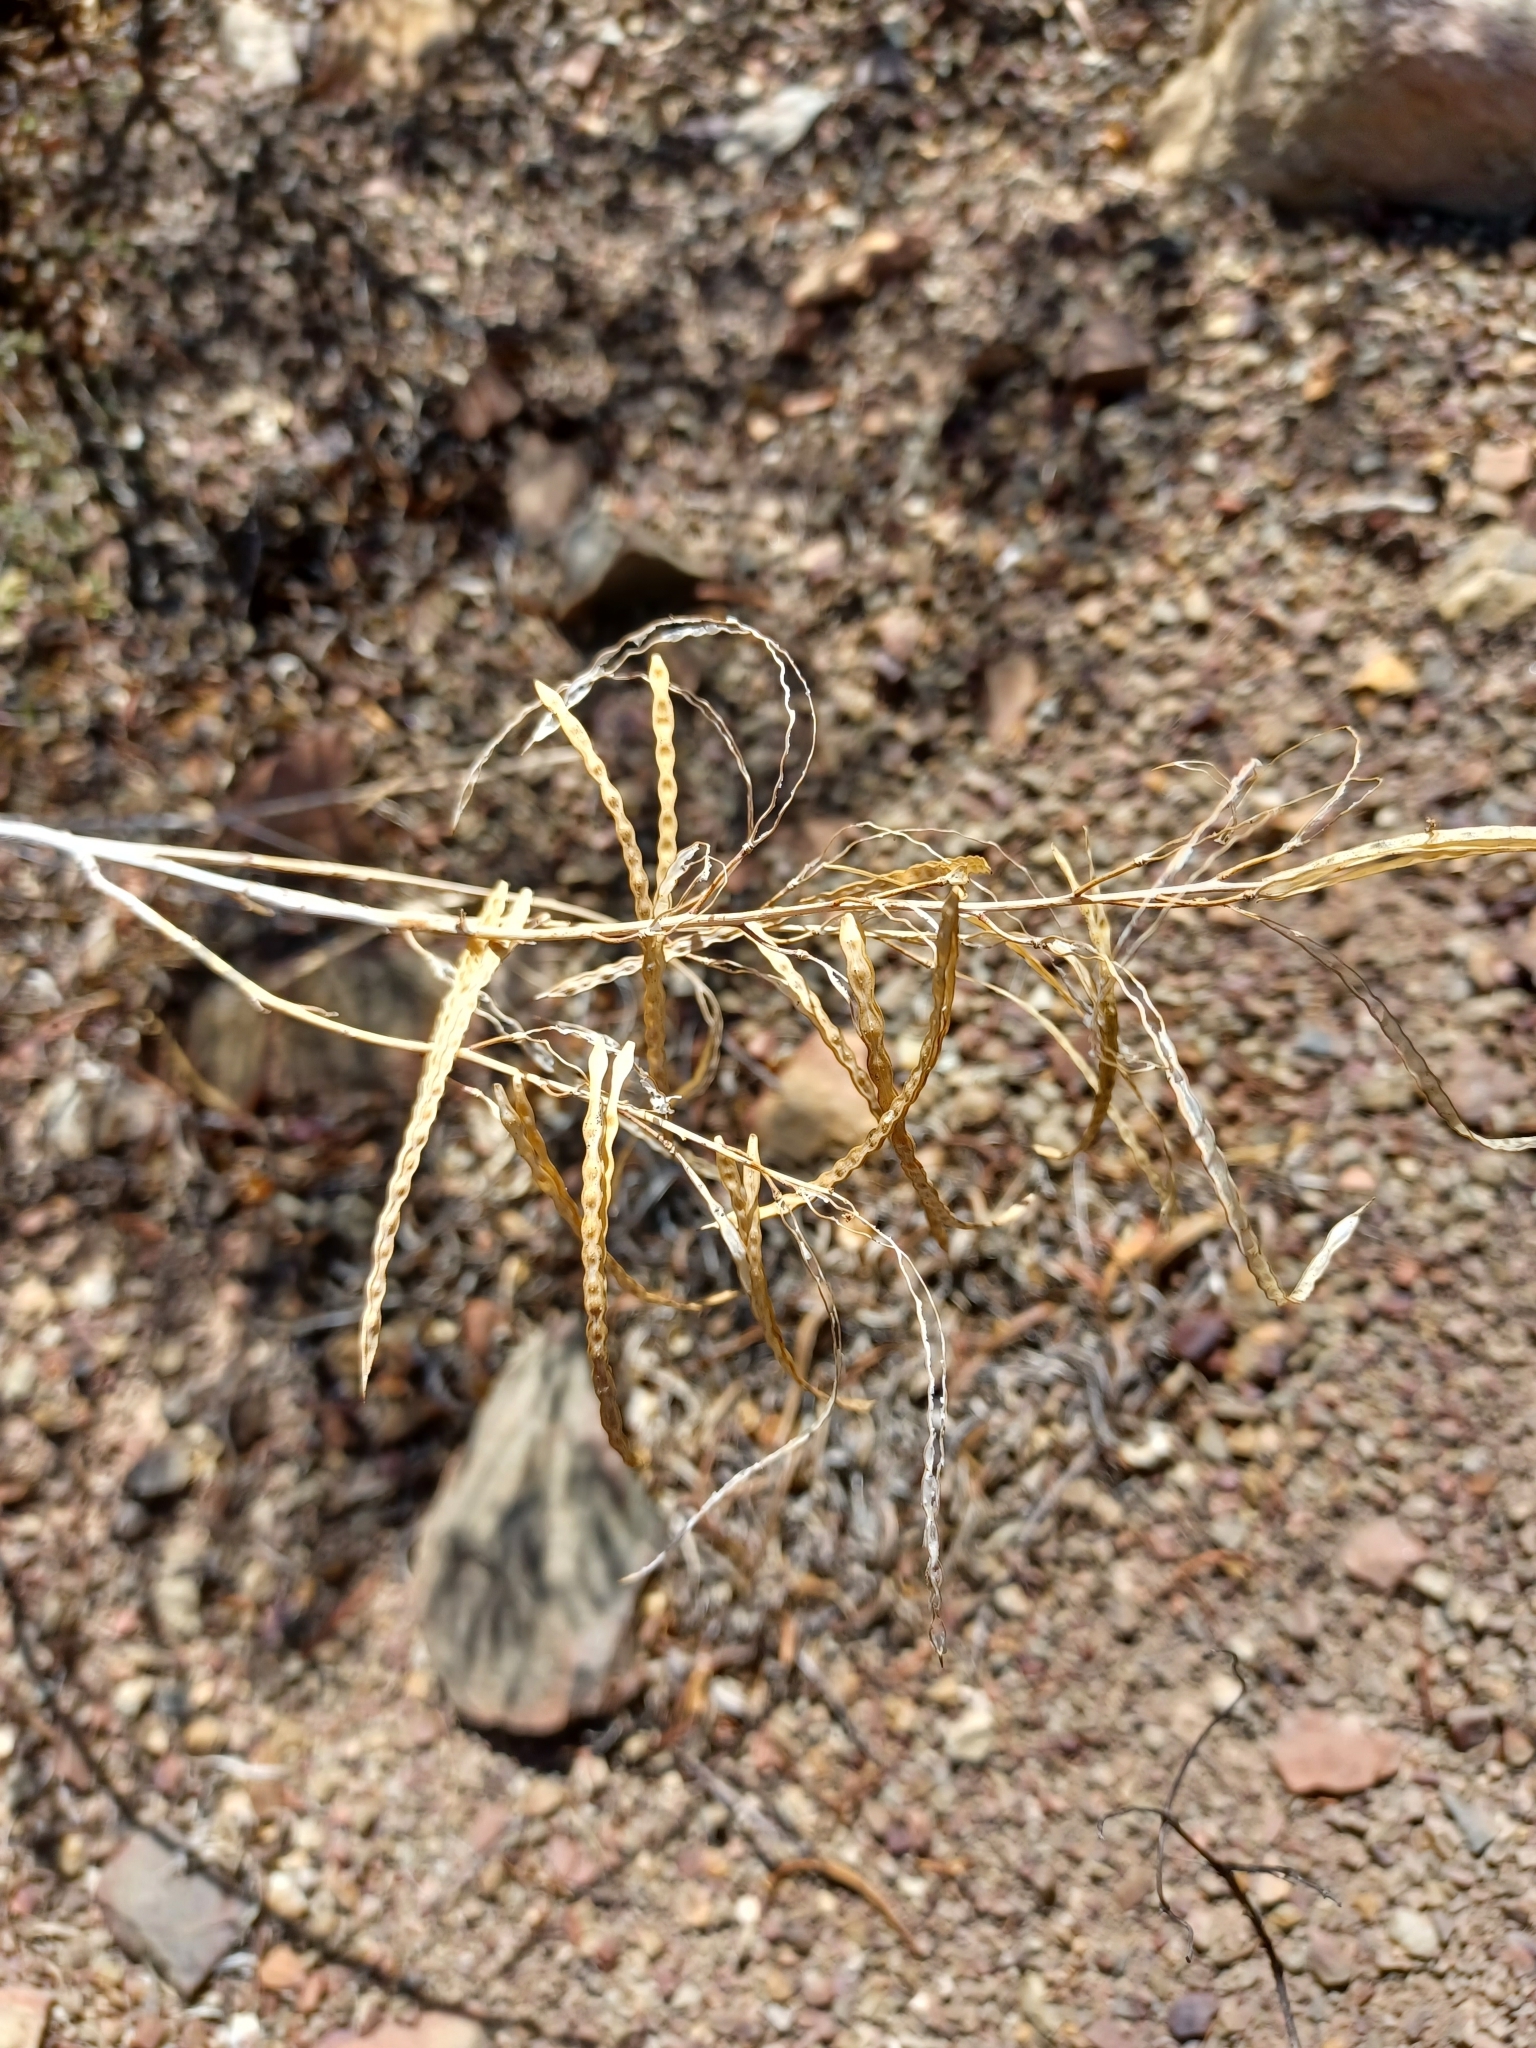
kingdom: Plantae
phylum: Tracheophyta
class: Magnoliopsida
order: Brassicales
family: Brassicaceae
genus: Heliophila
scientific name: Heliophila cornuta
